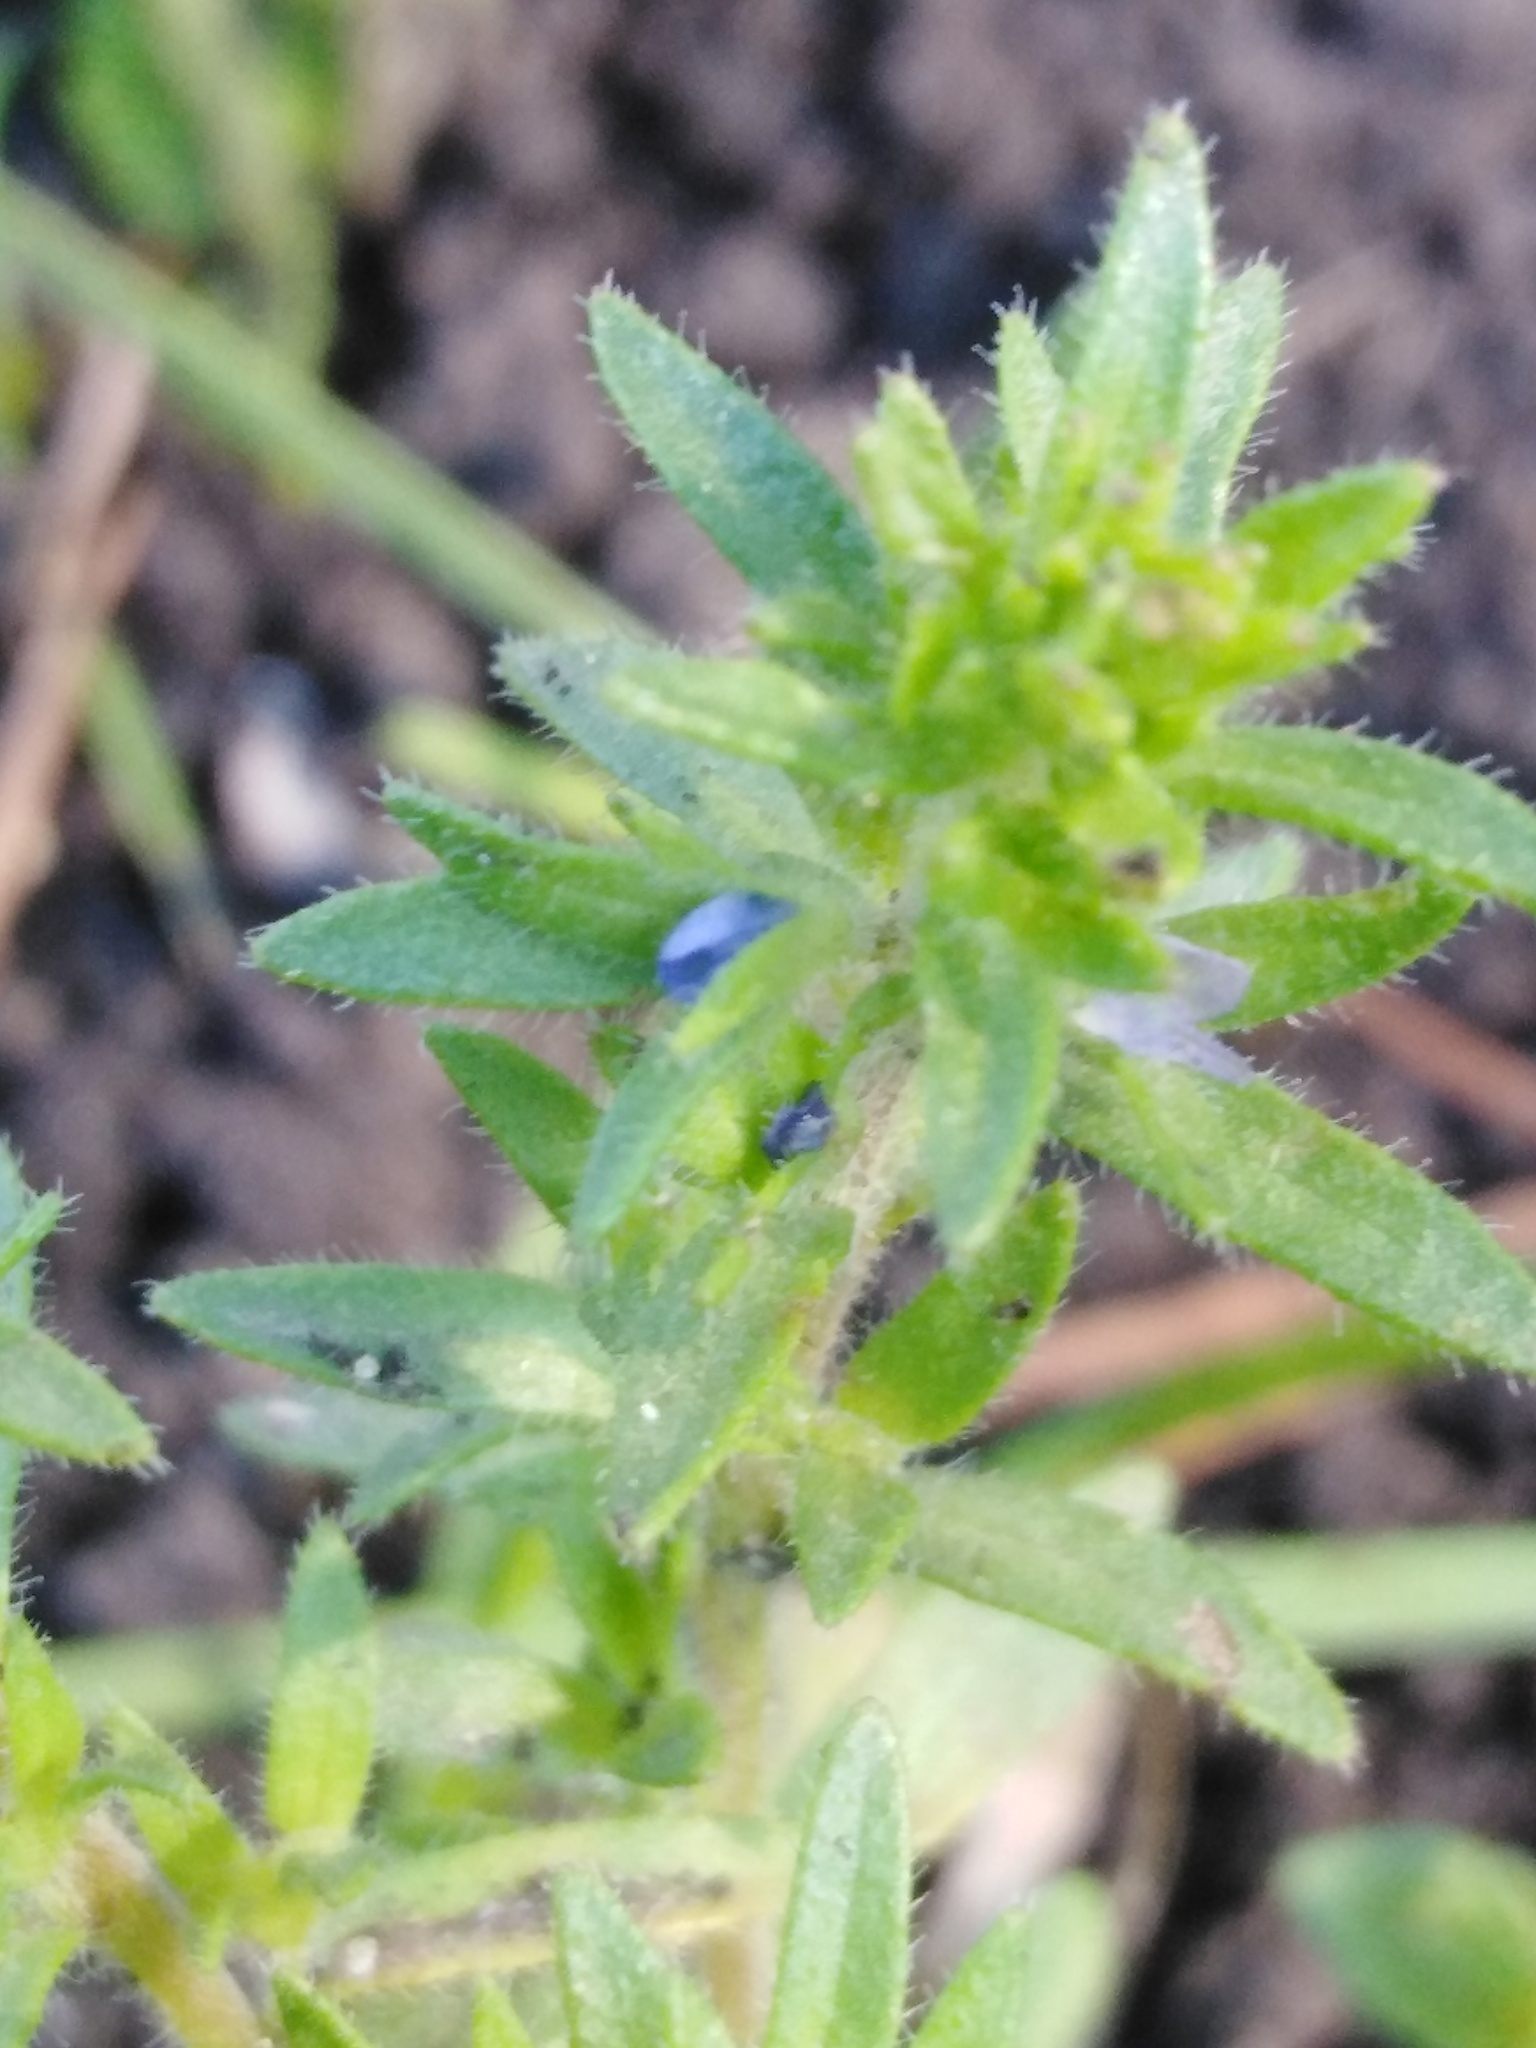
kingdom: Plantae
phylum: Tracheophyta
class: Magnoliopsida
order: Lamiales
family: Plantaginaceae
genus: Veronica
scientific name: Veronica verna
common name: Spring speedwell
